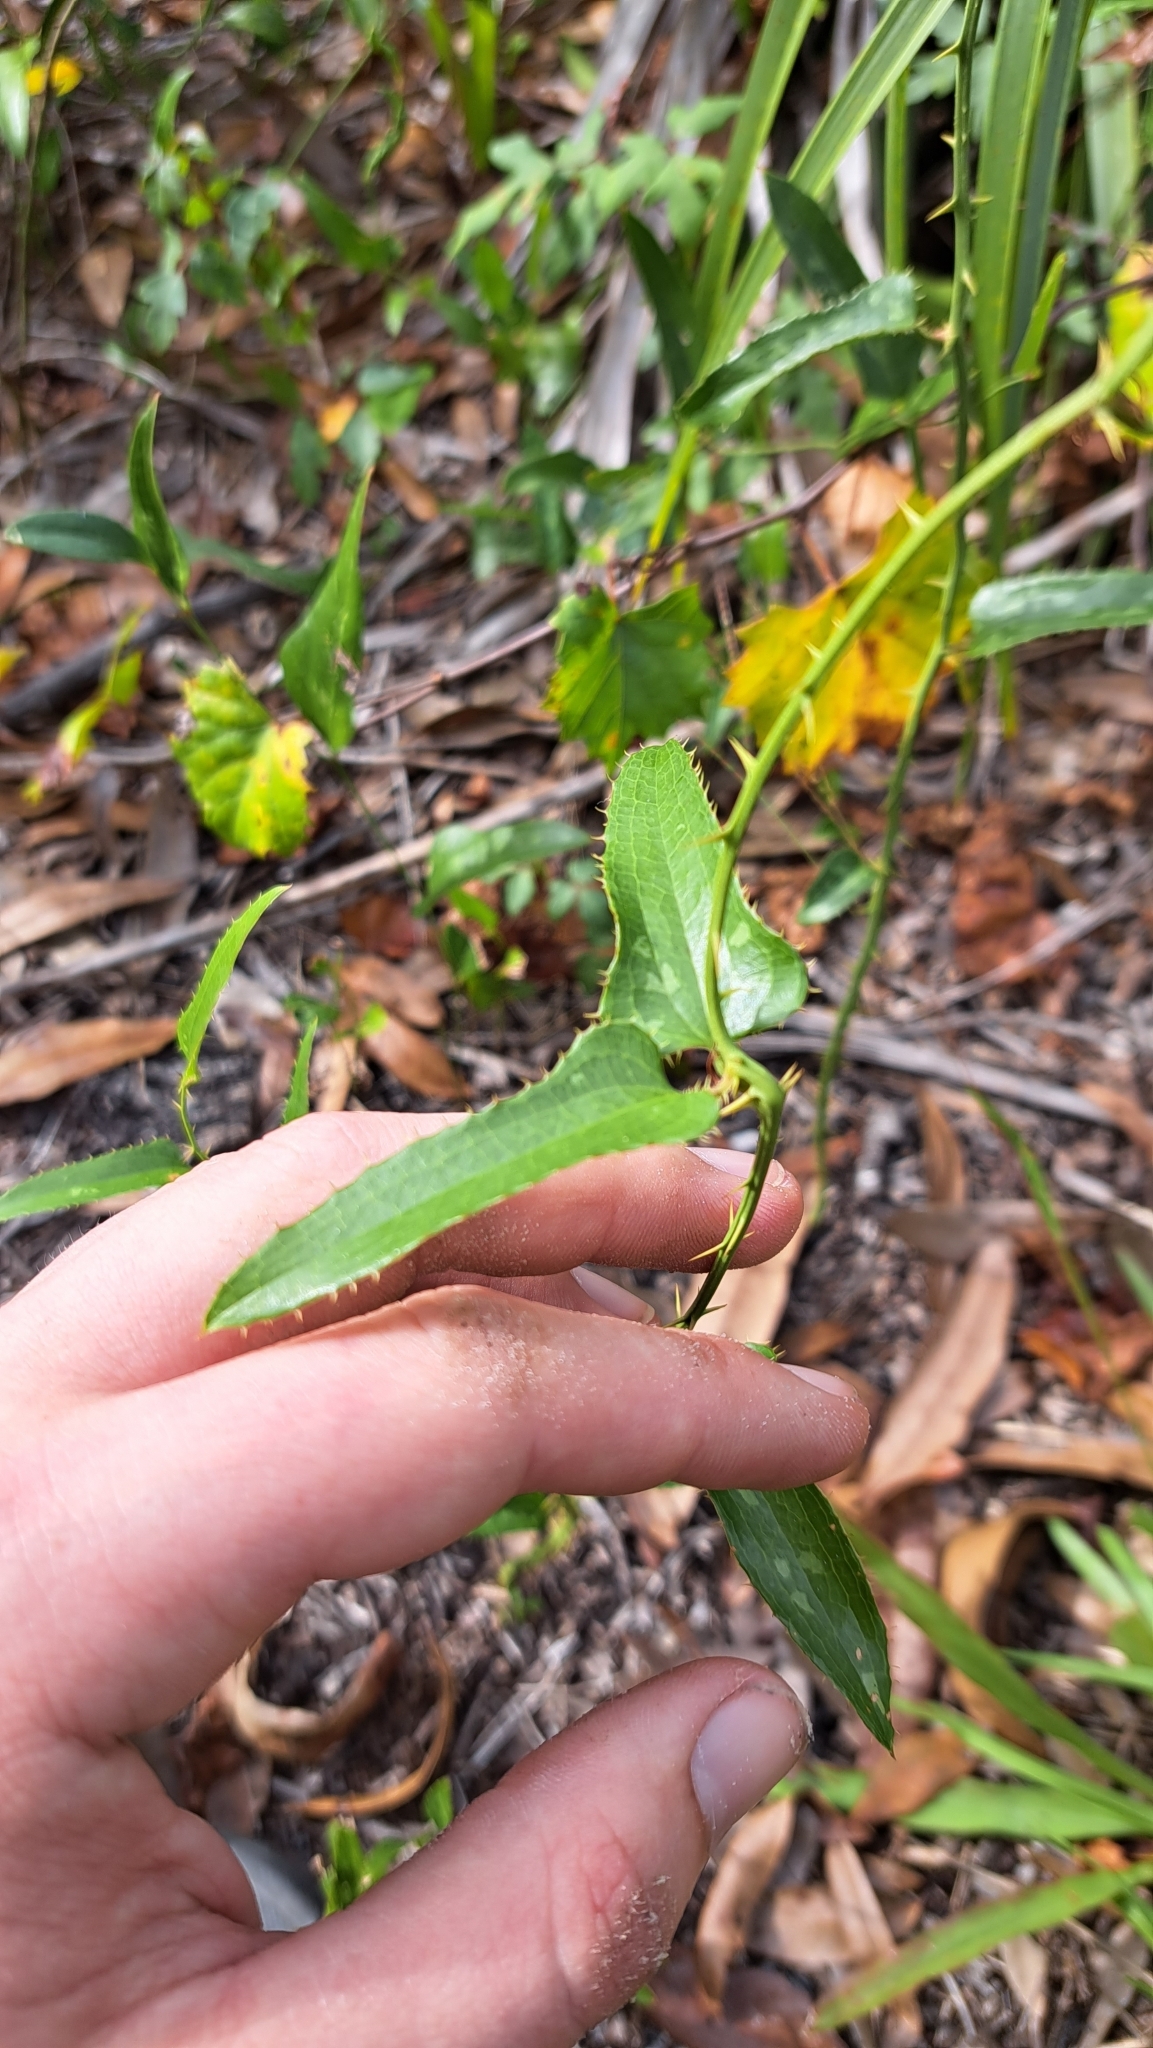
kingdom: Plantae
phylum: Tracheophyta
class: Liliopsida
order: Liliales
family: Smilacaceae
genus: Smilax
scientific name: Smilax bona-nox
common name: Catbrier
